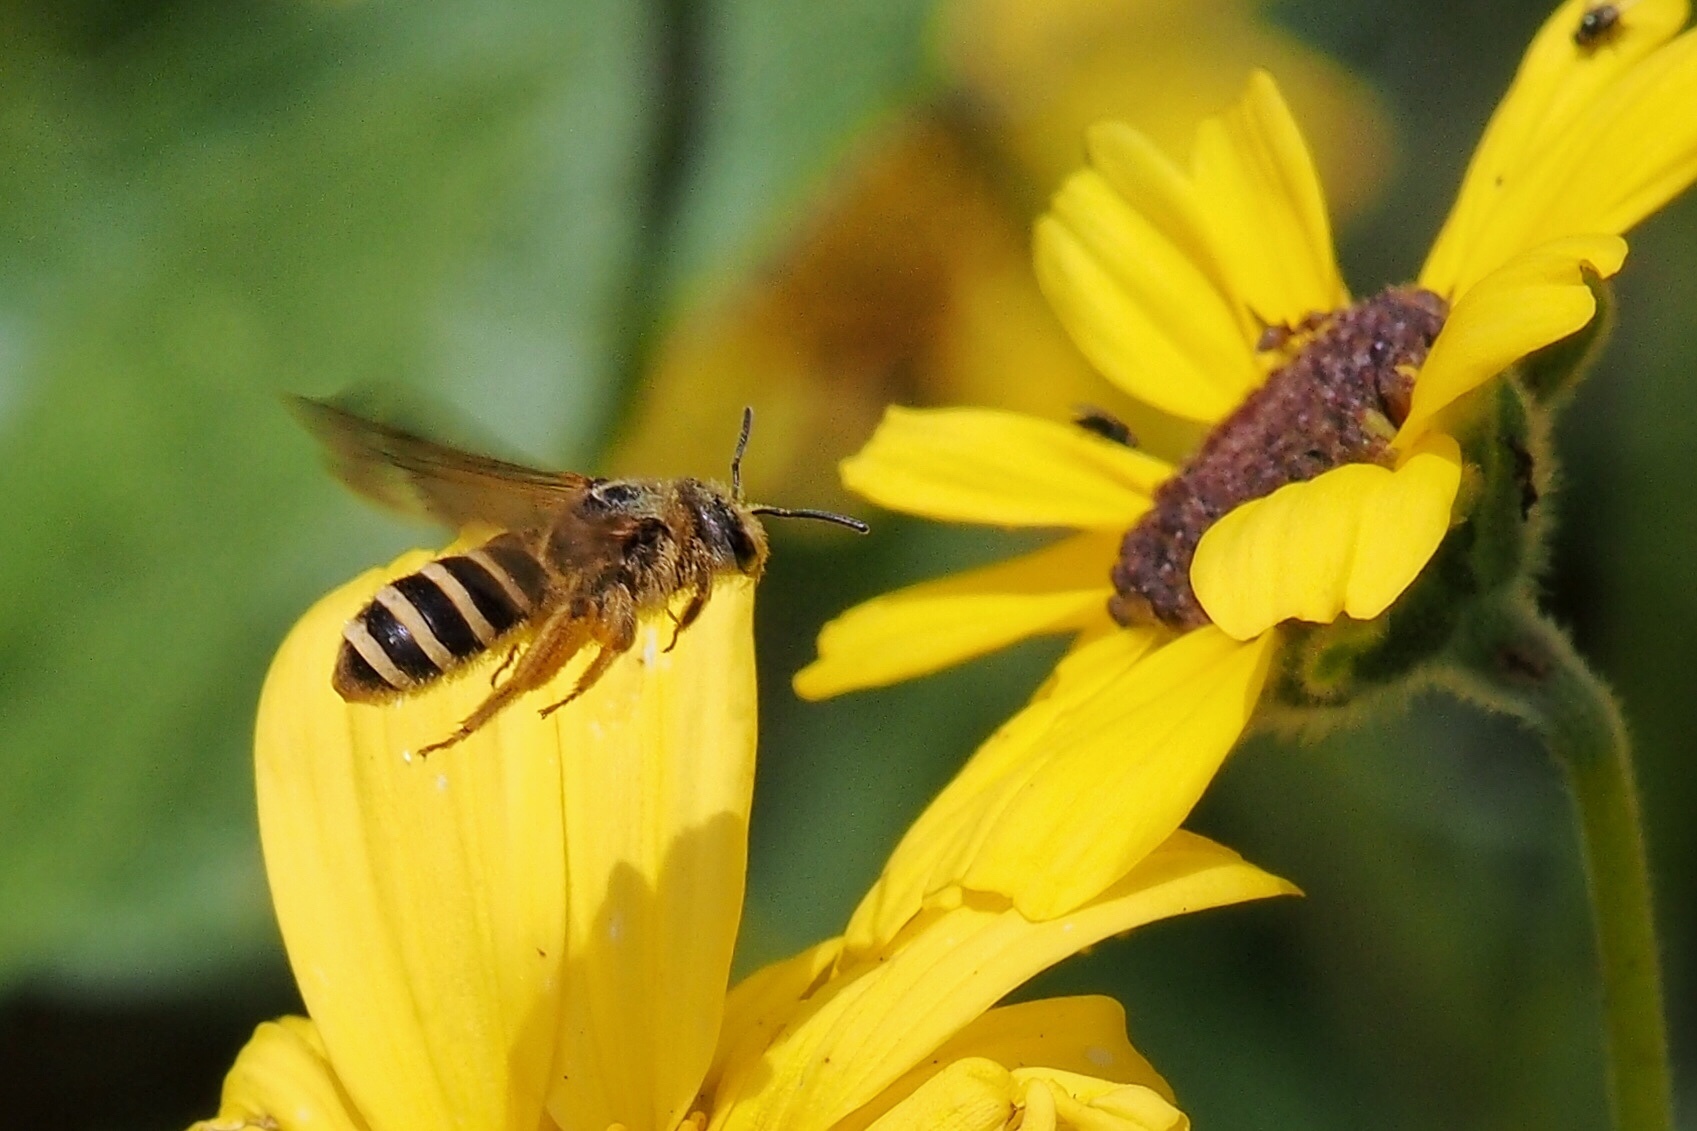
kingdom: Animalia
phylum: Arthropoda
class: Insecta
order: Hymenoptera
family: Halictidae
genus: Halictus
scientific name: Halictus farinosus
